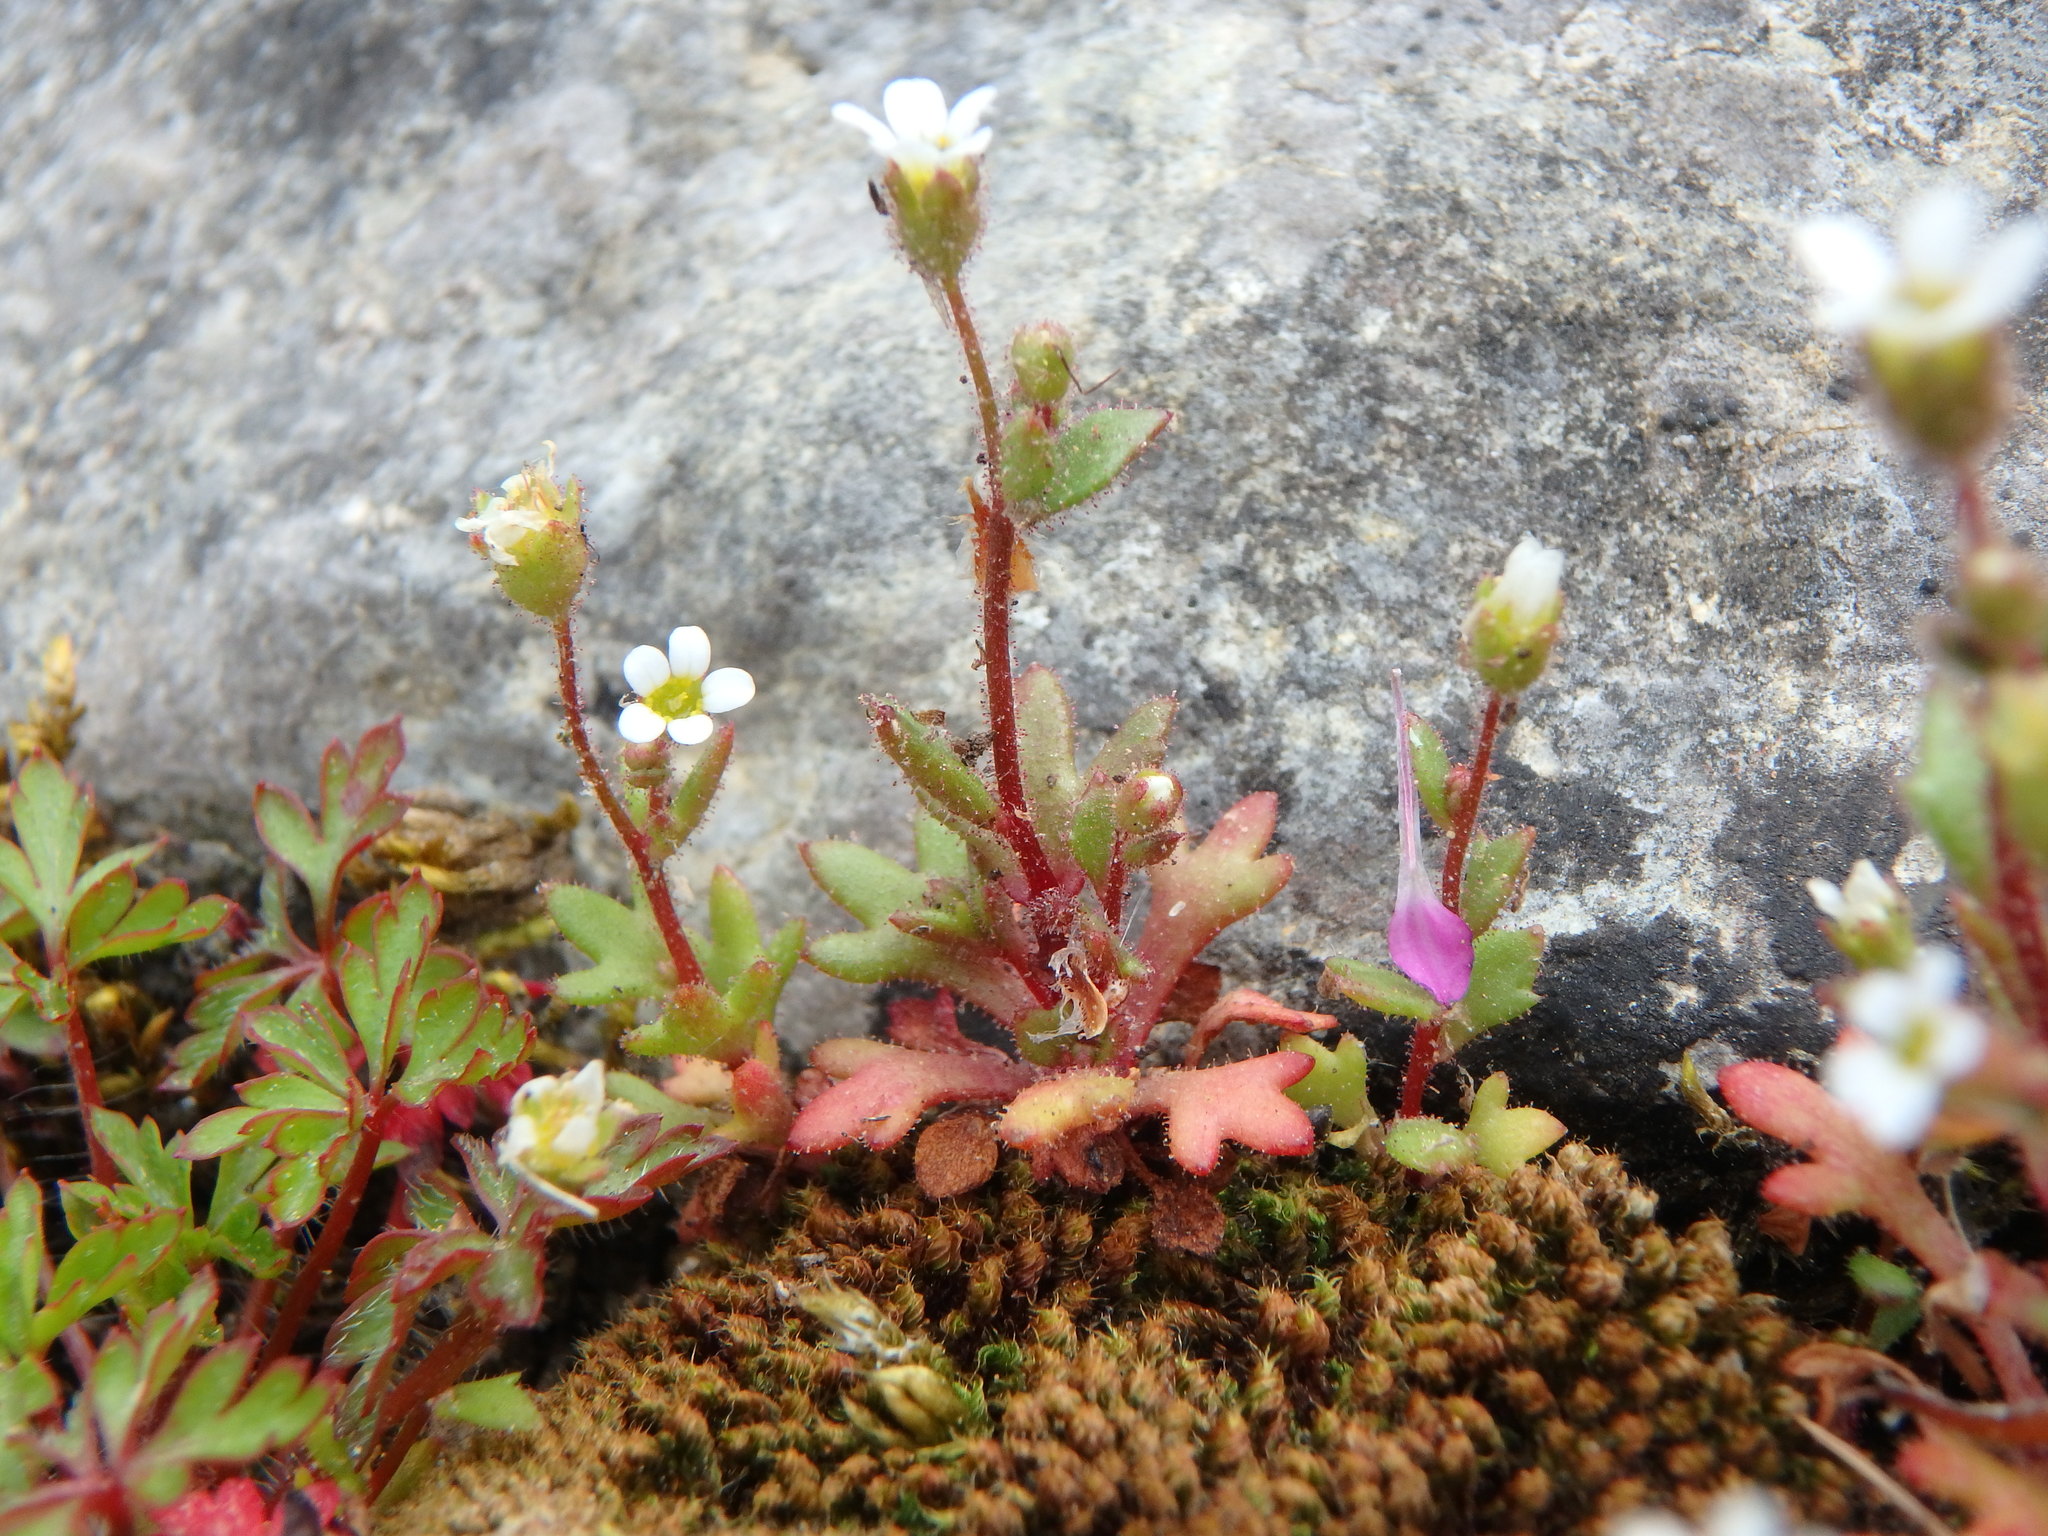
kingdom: Plantae
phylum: Tracheophyta
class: Magnoliopsida
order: Saxifragales
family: Saxifragaceae
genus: Saxifraga
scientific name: Saxifraga tridactylites
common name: Rue-leaved saxifrage
